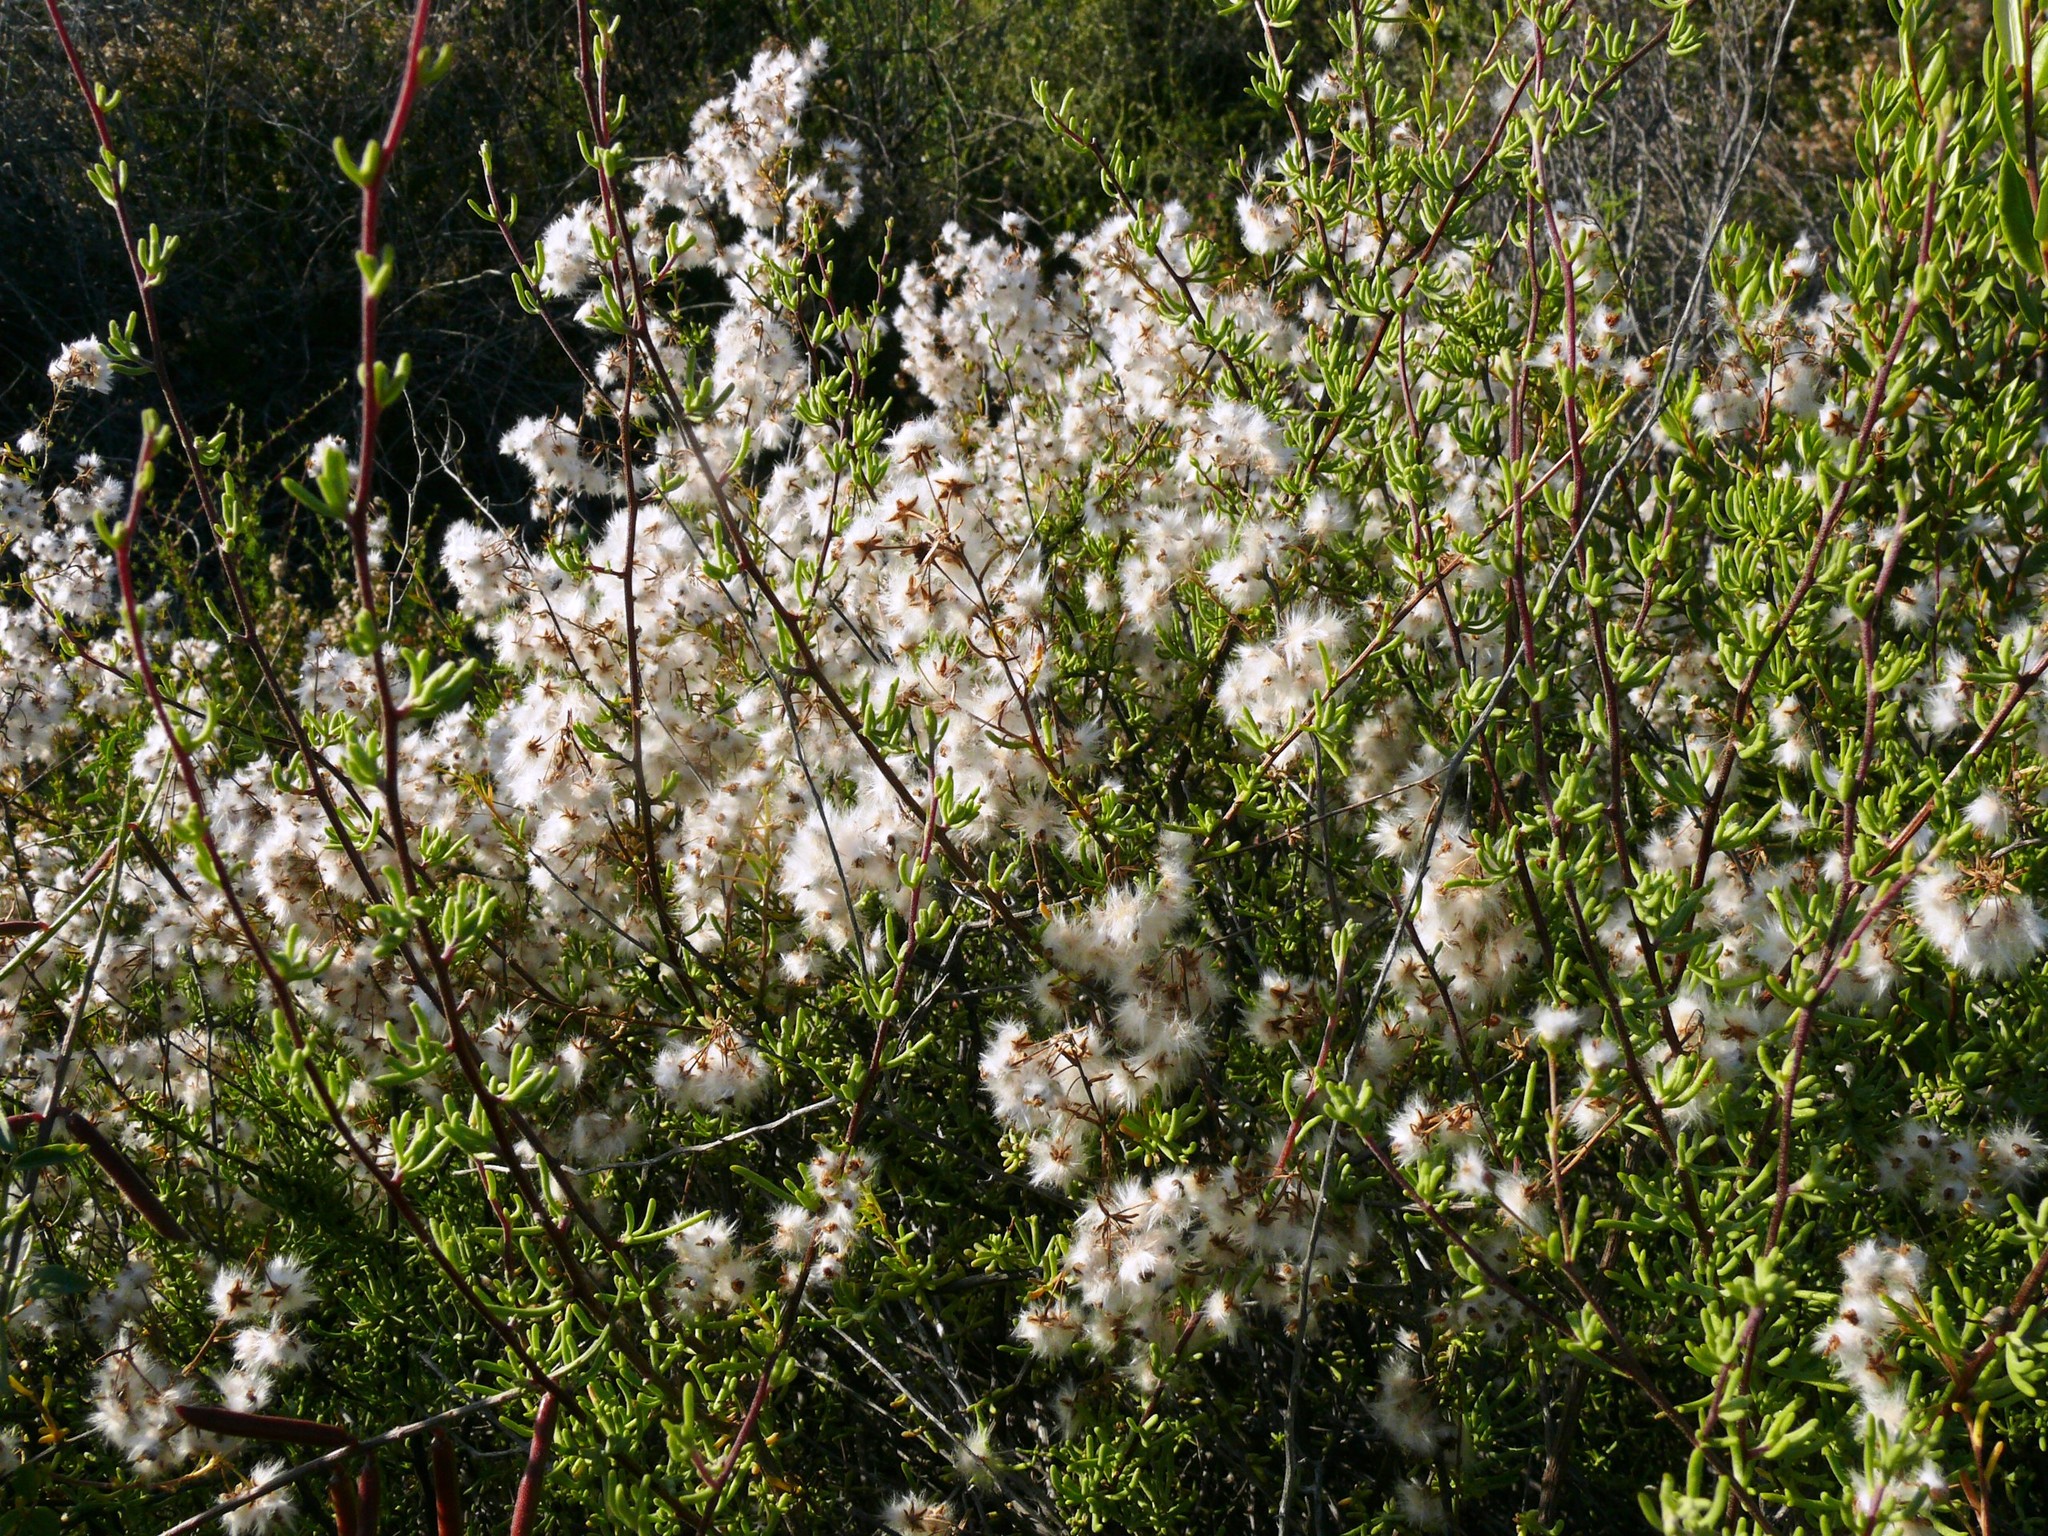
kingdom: Plantae
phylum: Tracheophyta
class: Magnoliopsida
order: Asterales
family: Asteraceae
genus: Eriocephalus
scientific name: Eriocephalus africanus
